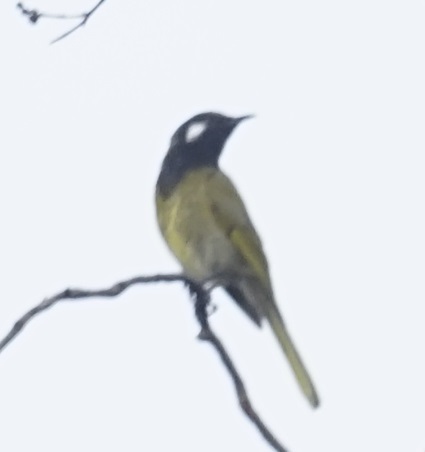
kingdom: Animalia
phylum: Chordata
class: Aves
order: Passeriformes
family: Meliphagidae
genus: Nesoptilotis
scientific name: Nesoptilotis leucotis
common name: White-eared honeyeater
